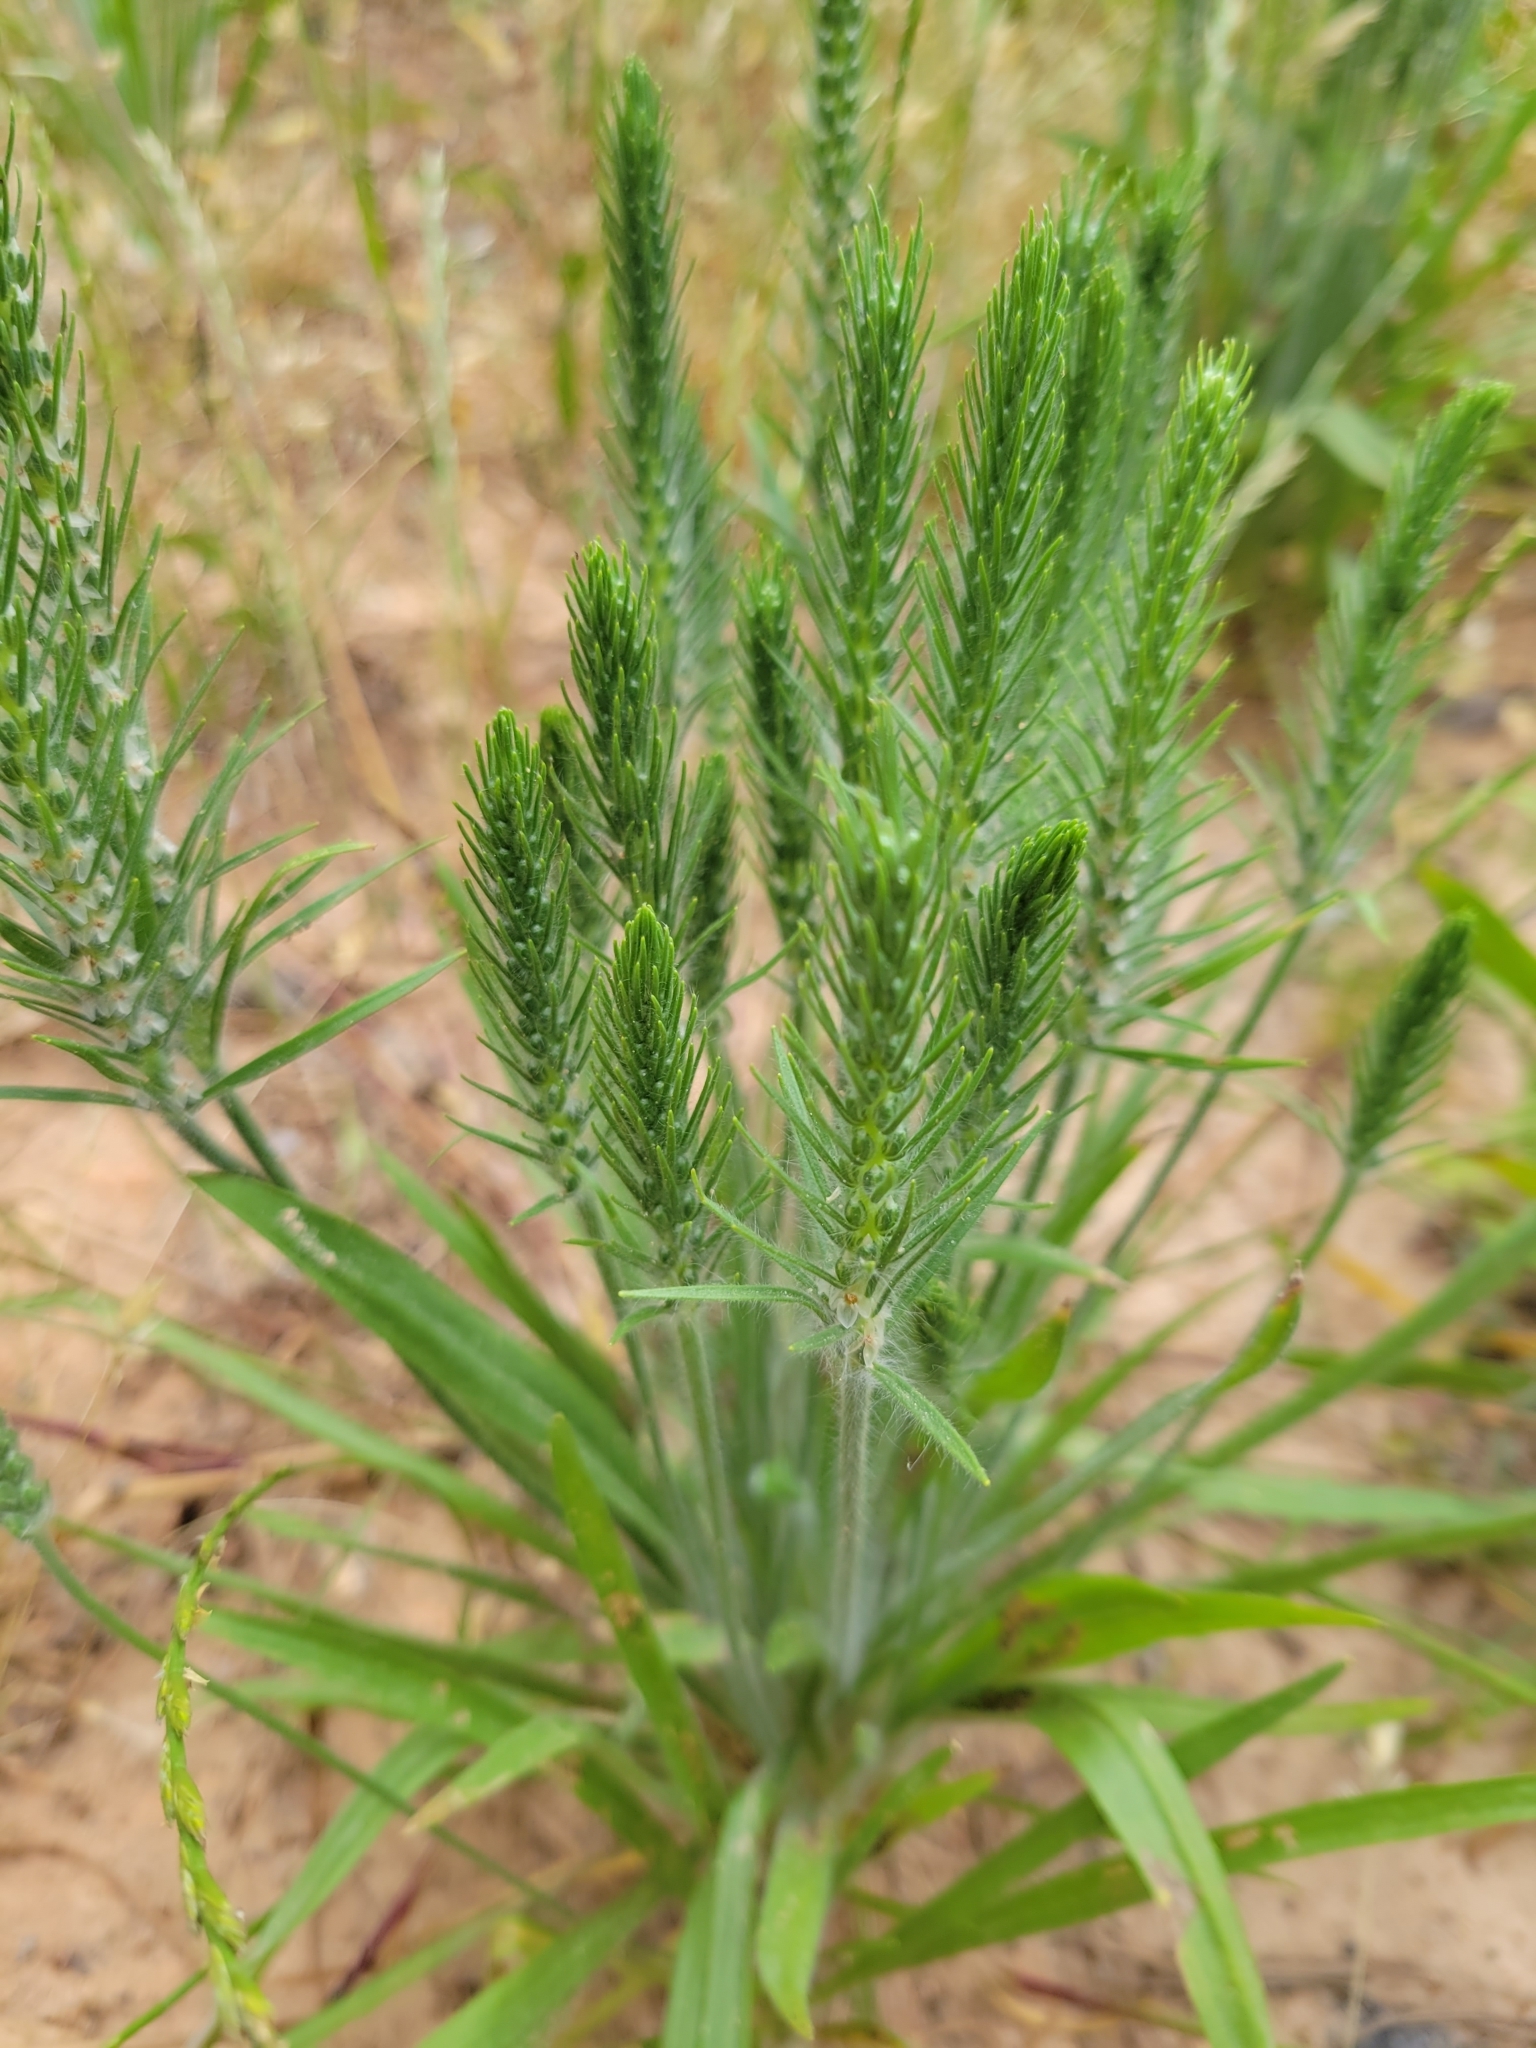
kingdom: Plantae
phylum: Tracheophyta
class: Magnoliopsida
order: Lamiales
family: Plantaginaceae
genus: Plantago
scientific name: Plantago aristata
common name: Bracted plantain
